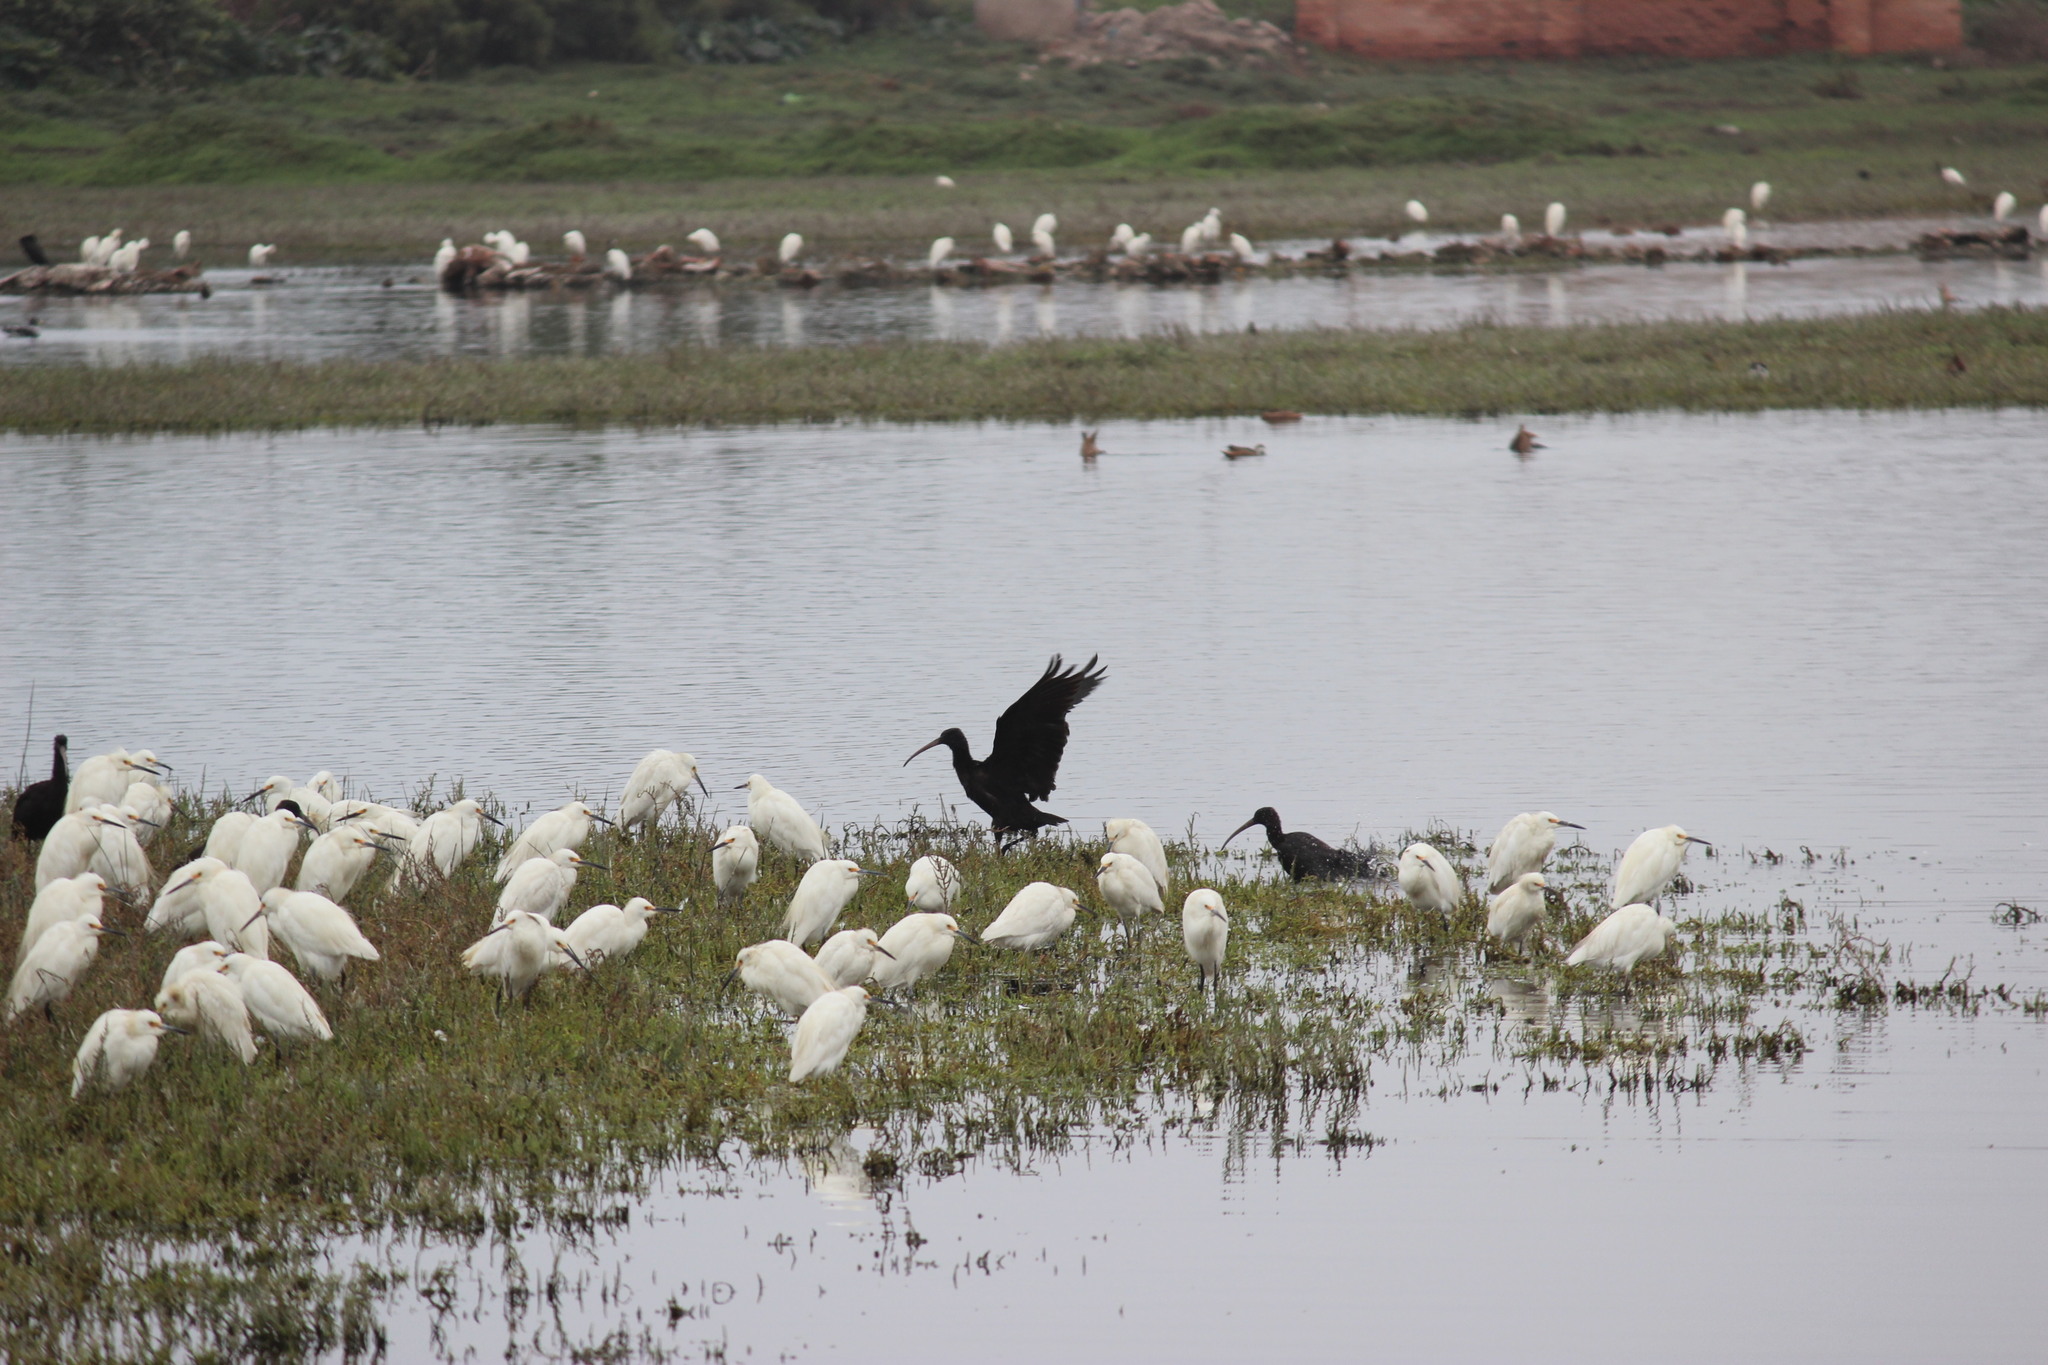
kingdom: Animalia
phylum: Chordata
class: Aves
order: Pelecaniformes
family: Threskiornithidae
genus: Plegadis
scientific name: Plegadis ridgwayi
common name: Puna ibis
